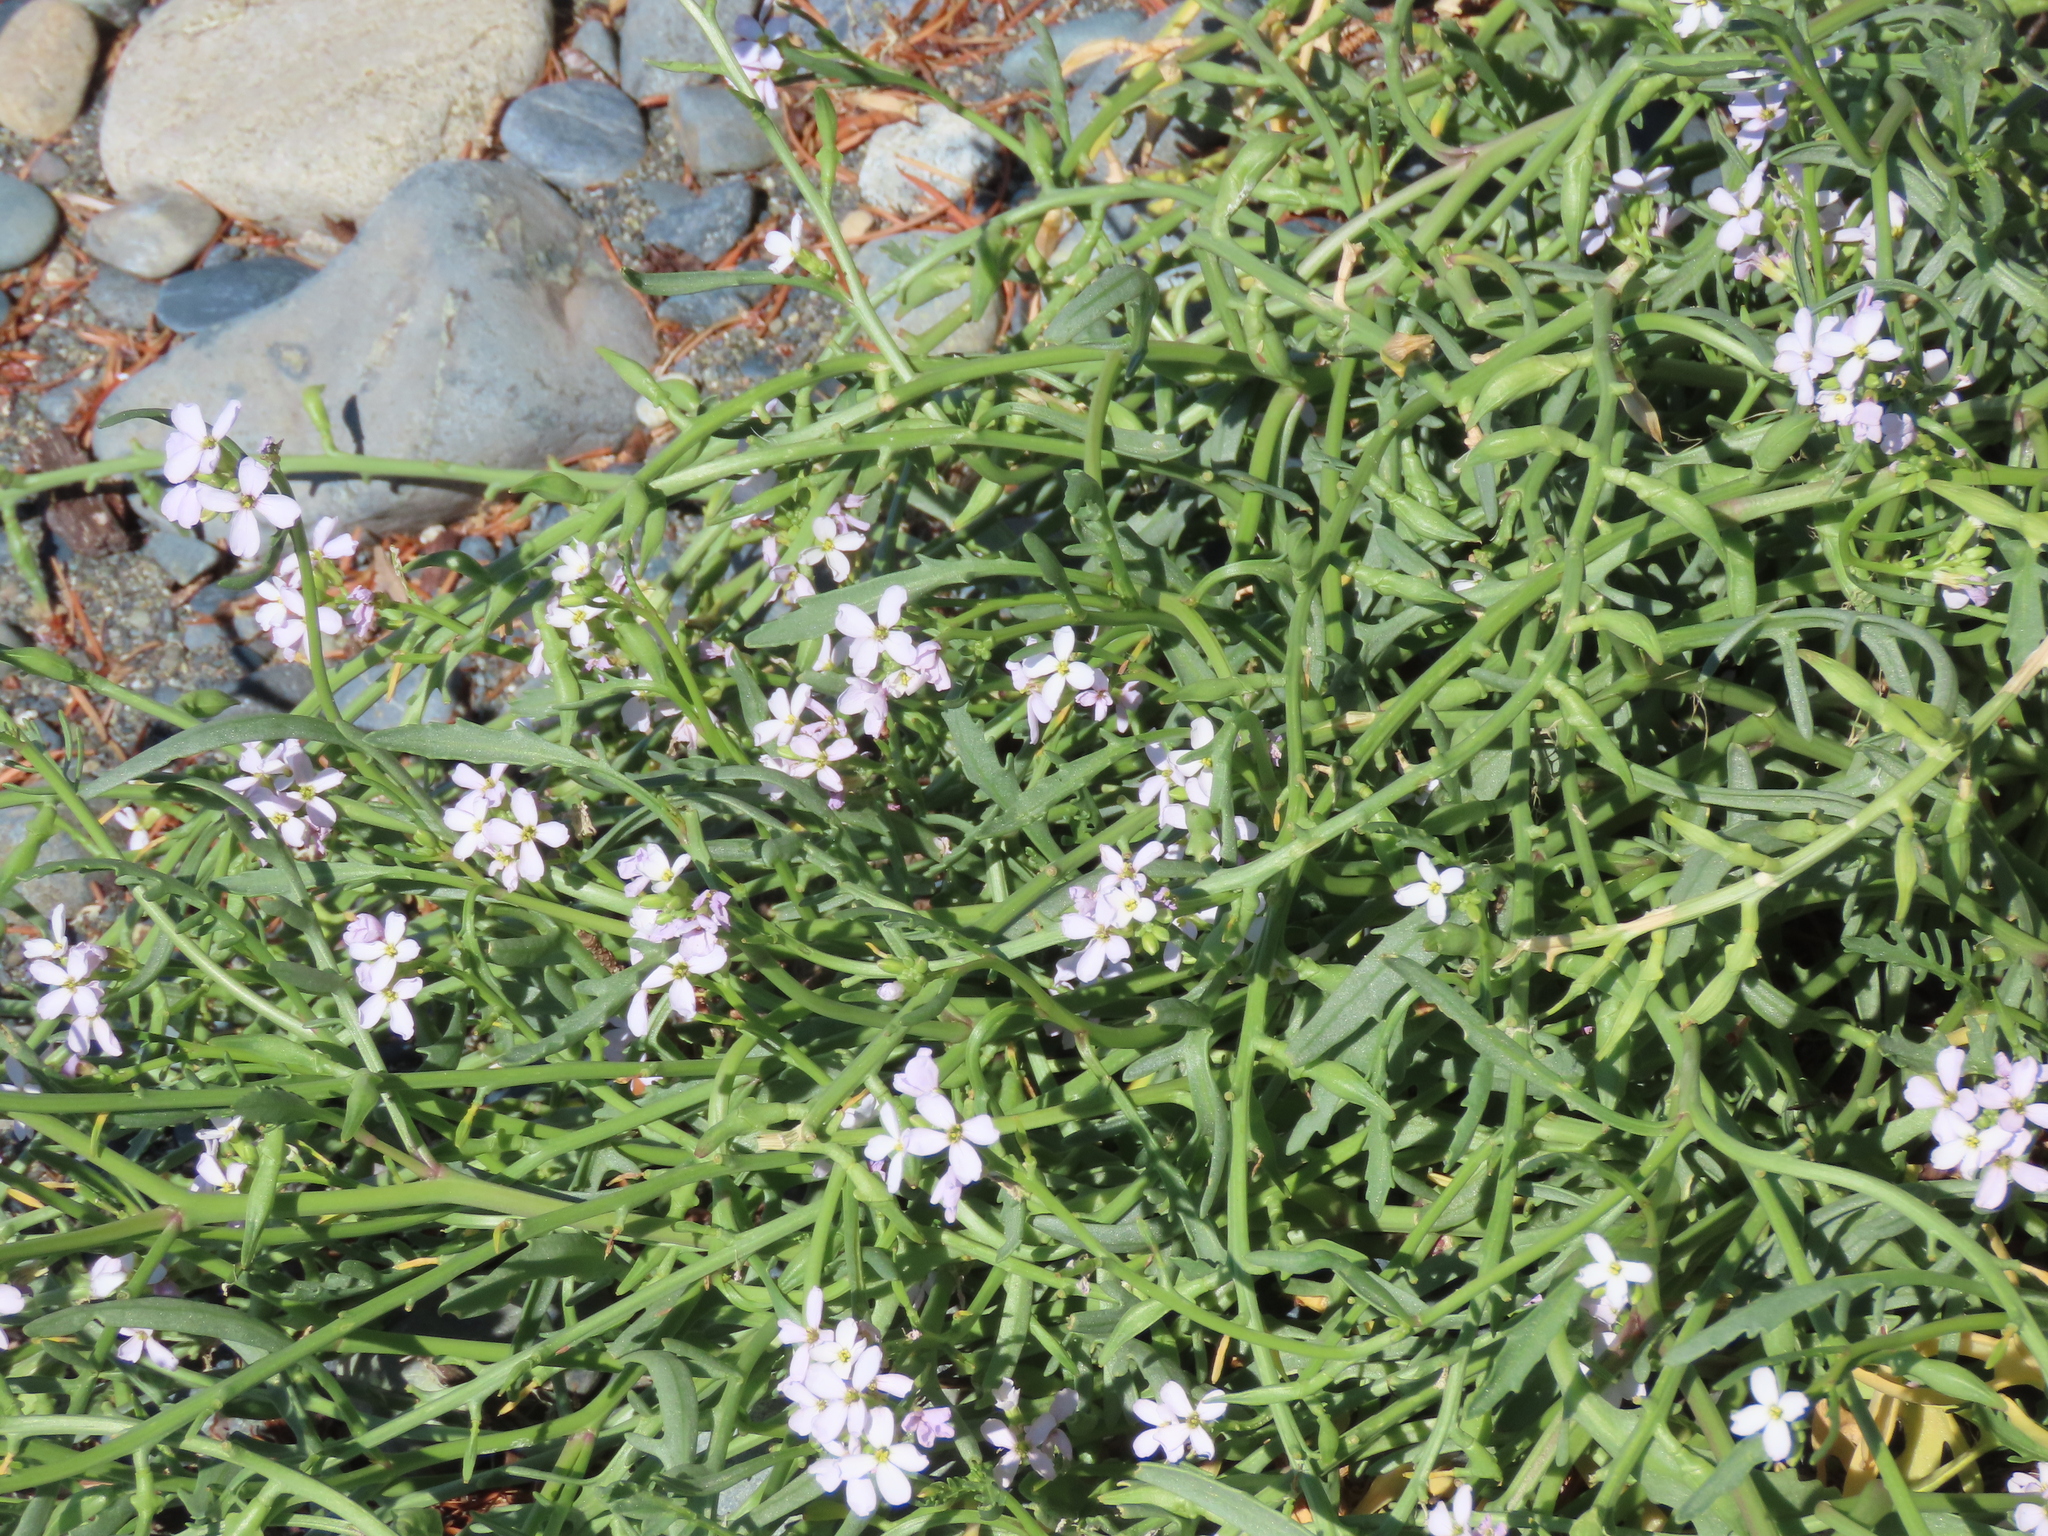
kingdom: Plantae
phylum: Tracheophyta
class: Magnoliopsida
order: Brassicales
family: Brassicaceae
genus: Cakile
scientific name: Cakile maritima
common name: Sea rocket
